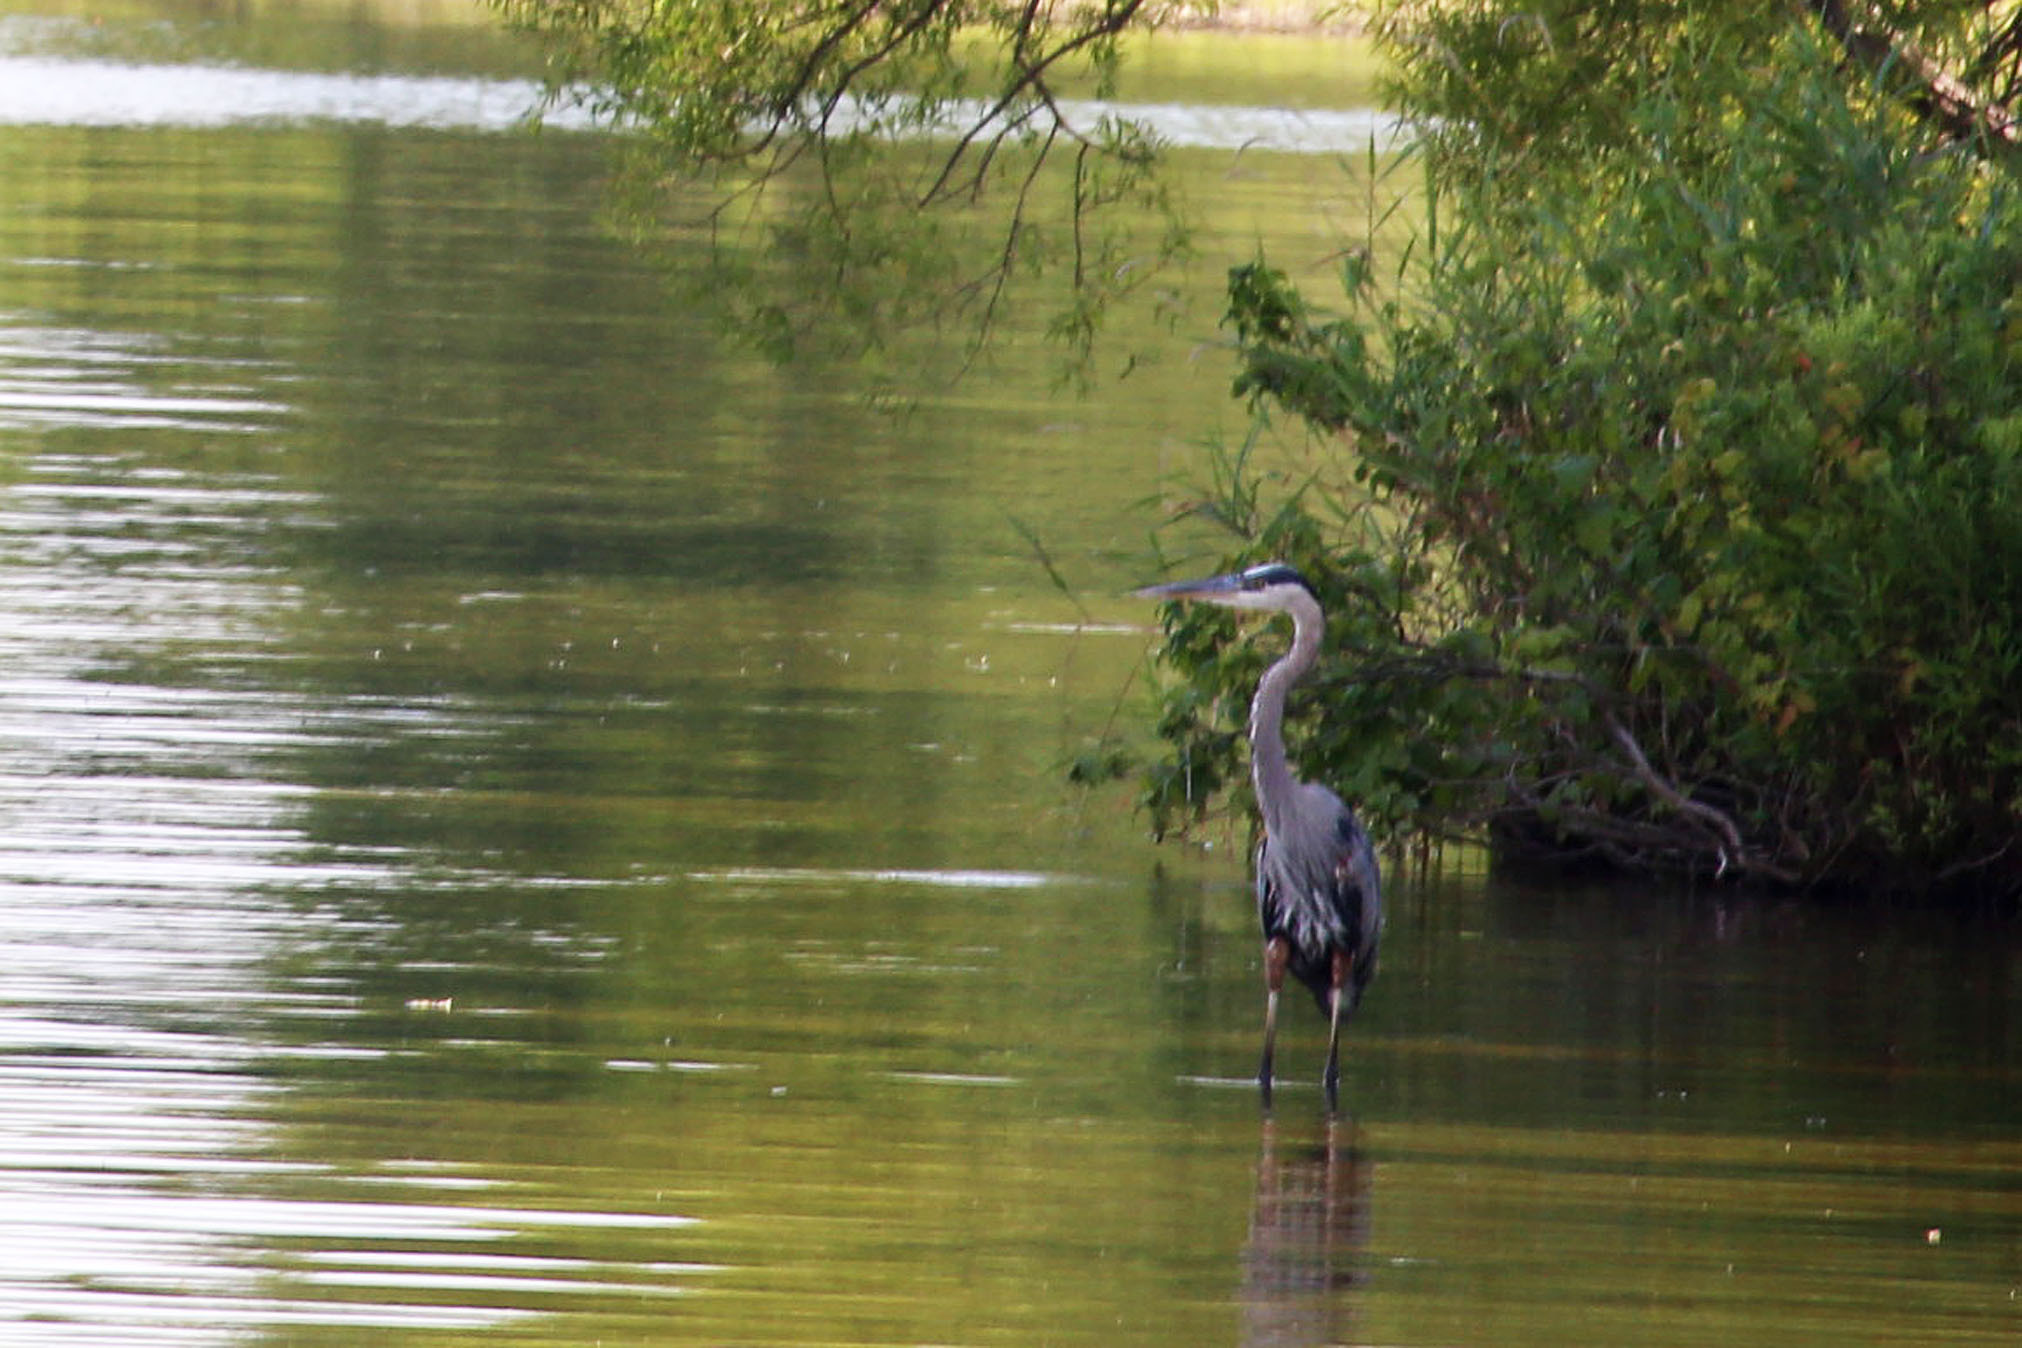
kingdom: Animalia
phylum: Chordata
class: Aves
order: Pelecaniformes
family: Ardeidae
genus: Ardea
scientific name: Ardea herodias
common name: Great blue heron
